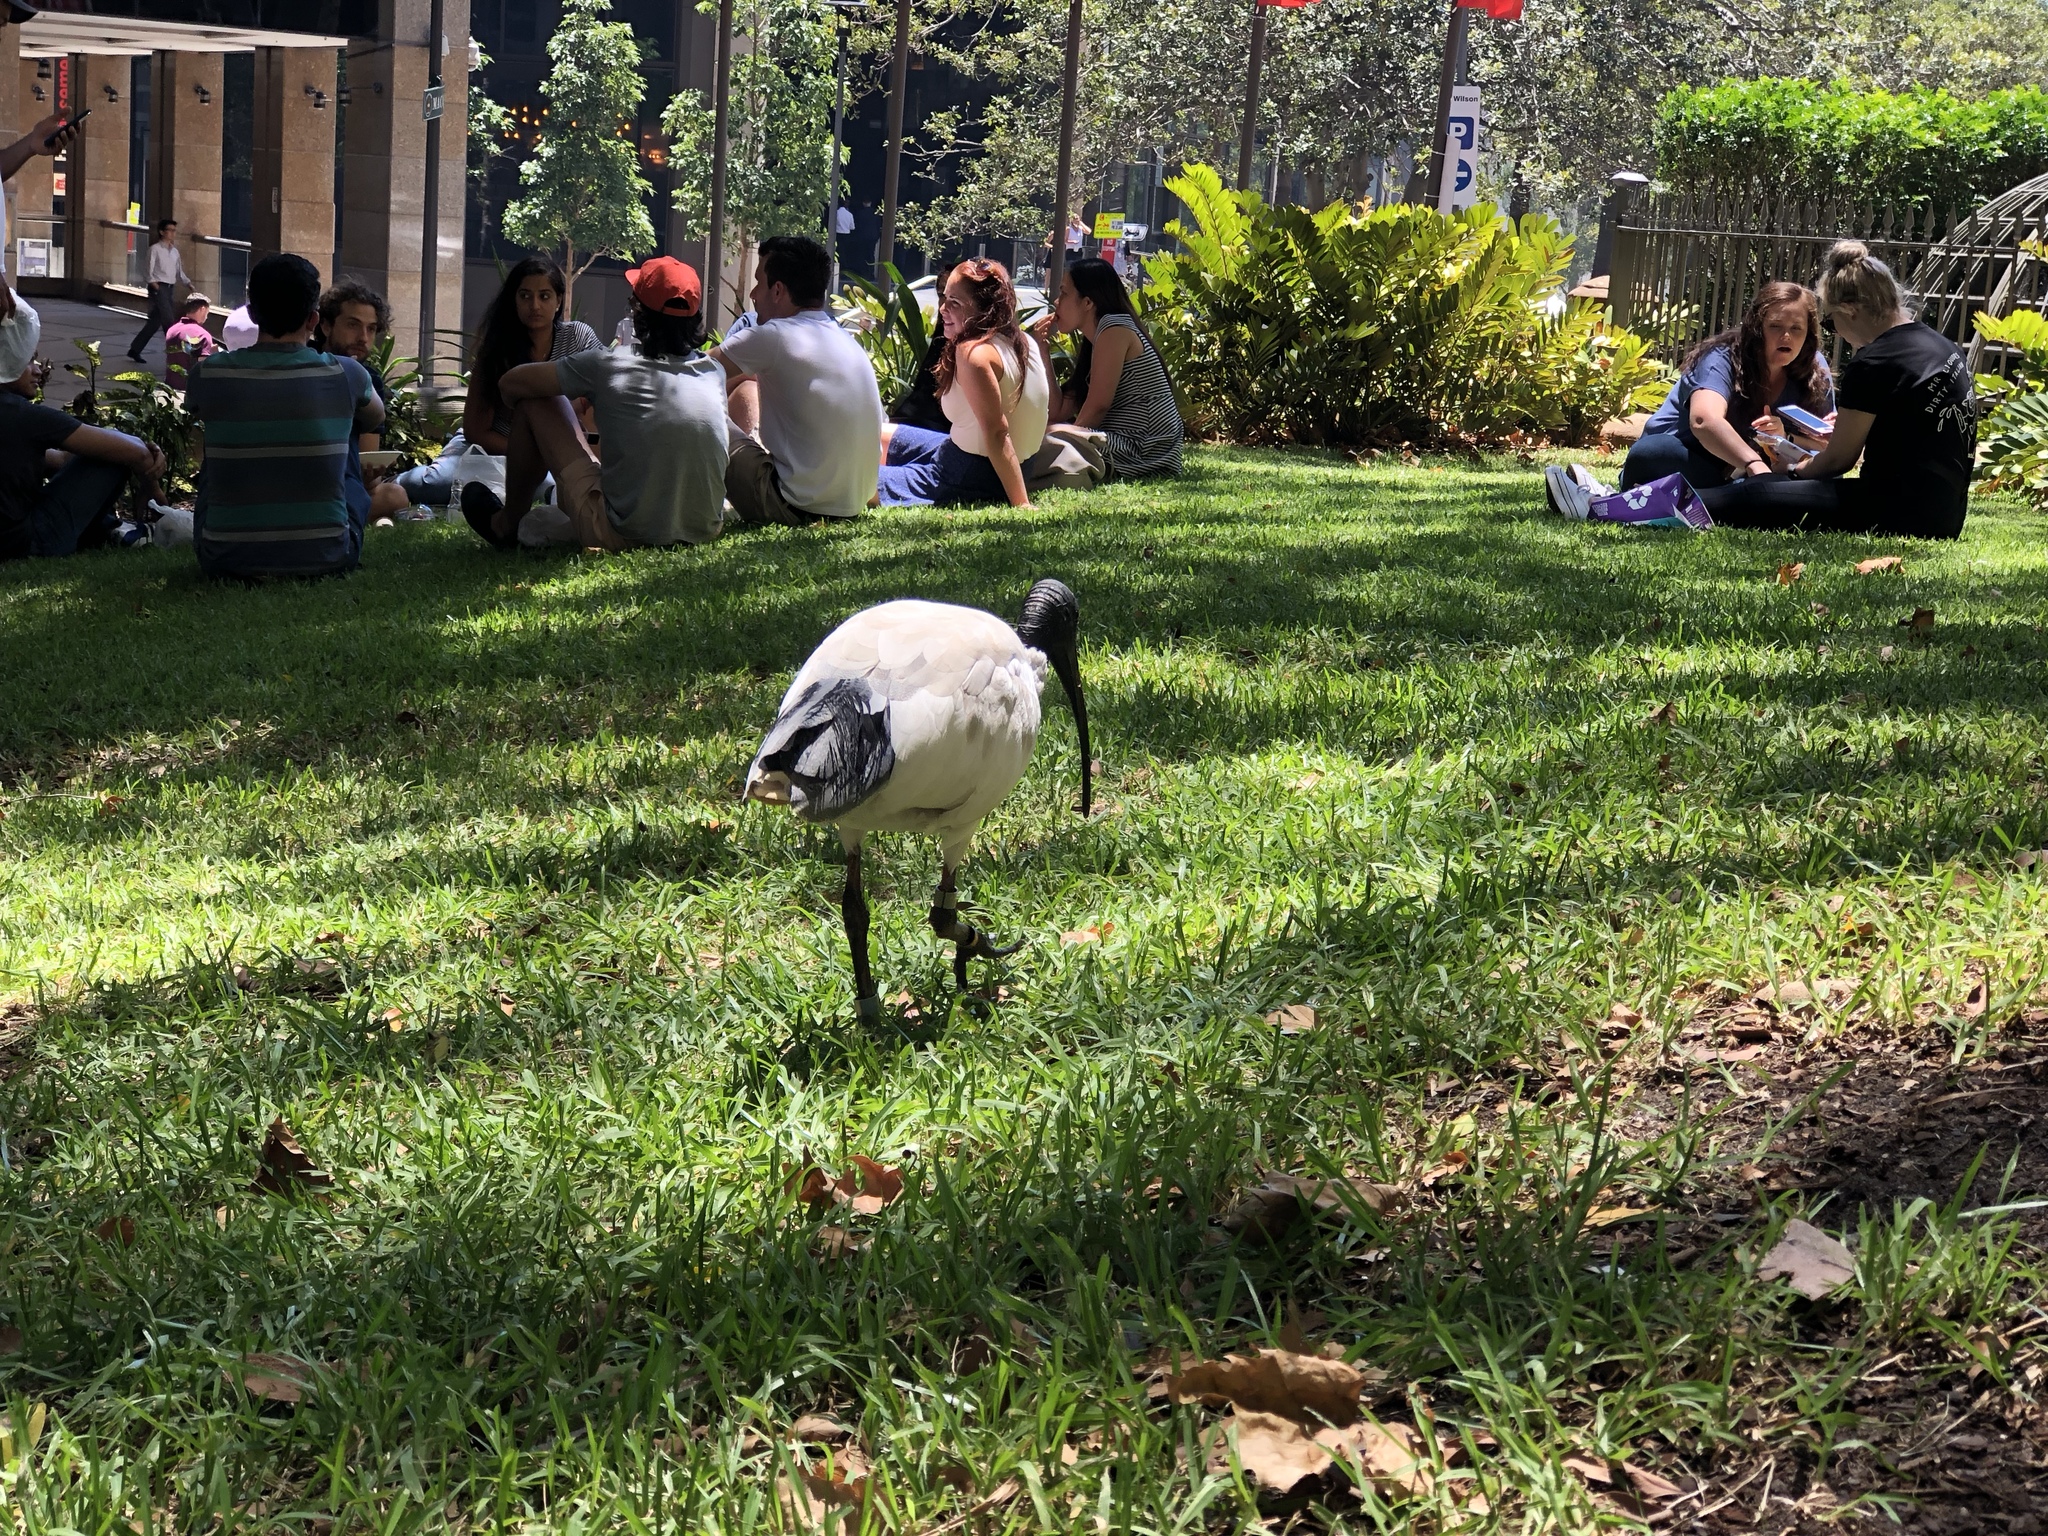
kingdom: Animalia
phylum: Chordata
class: Aves
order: Pelecaniformes
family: Threskiornithidae
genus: Threskiornis
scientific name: Threskiornis molucca
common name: Australian white ibis
